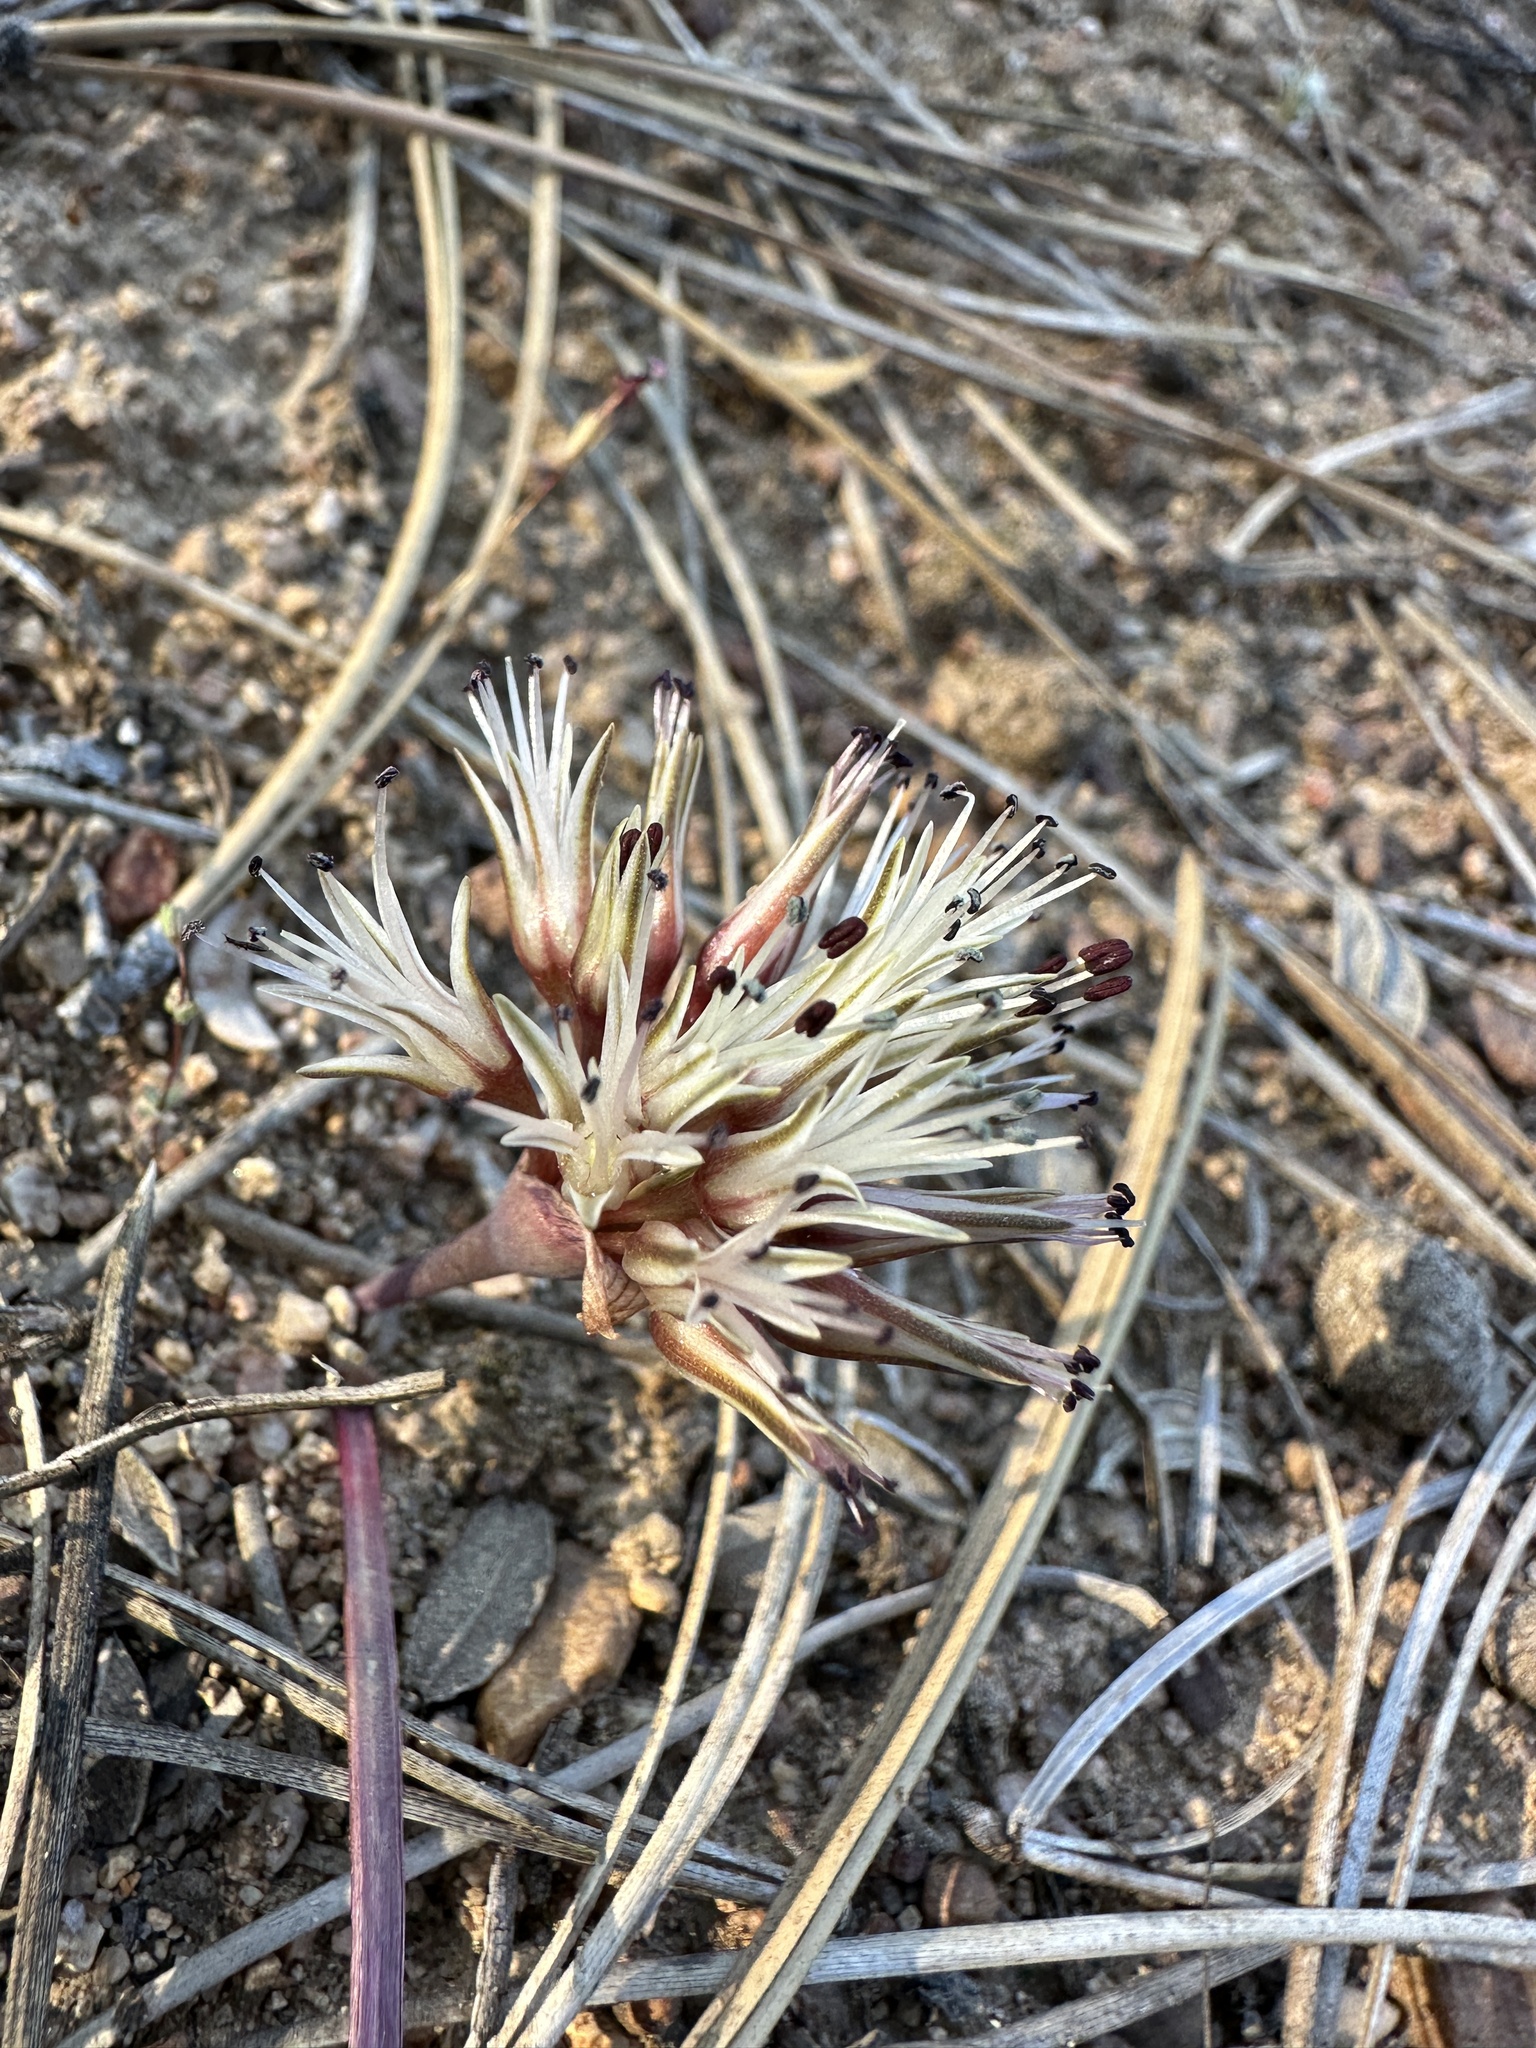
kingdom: Plantae
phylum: Tracheophyta
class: Liliopsida
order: Asparagales
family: Amaryllidaceae
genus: Allium
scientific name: Allium burlewii
